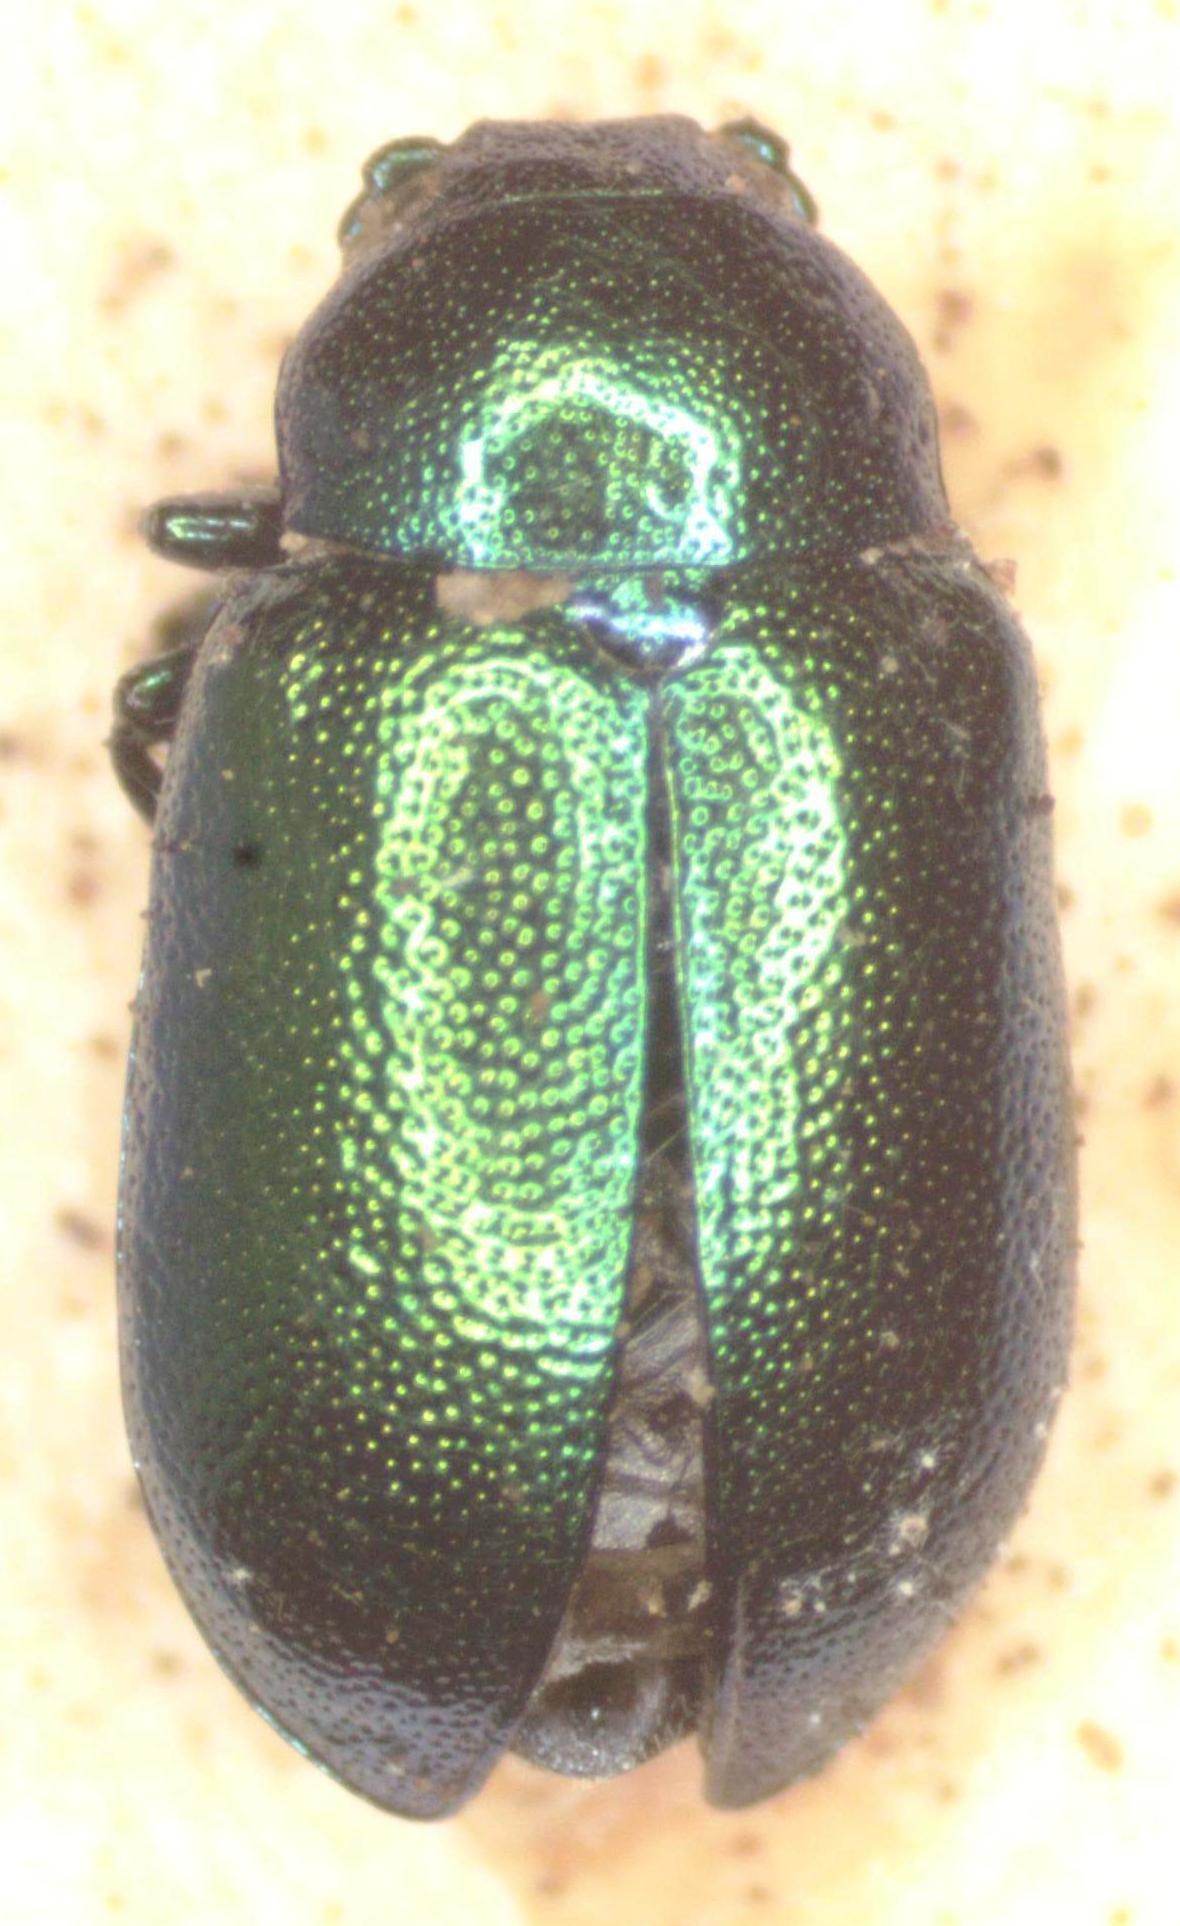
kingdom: Animalia
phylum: Arthropoda
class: Insecta
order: Coleoptera
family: Chrysomelidae
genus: Gastrophysa
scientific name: Gastrophysa viridula
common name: Green dock beetle
